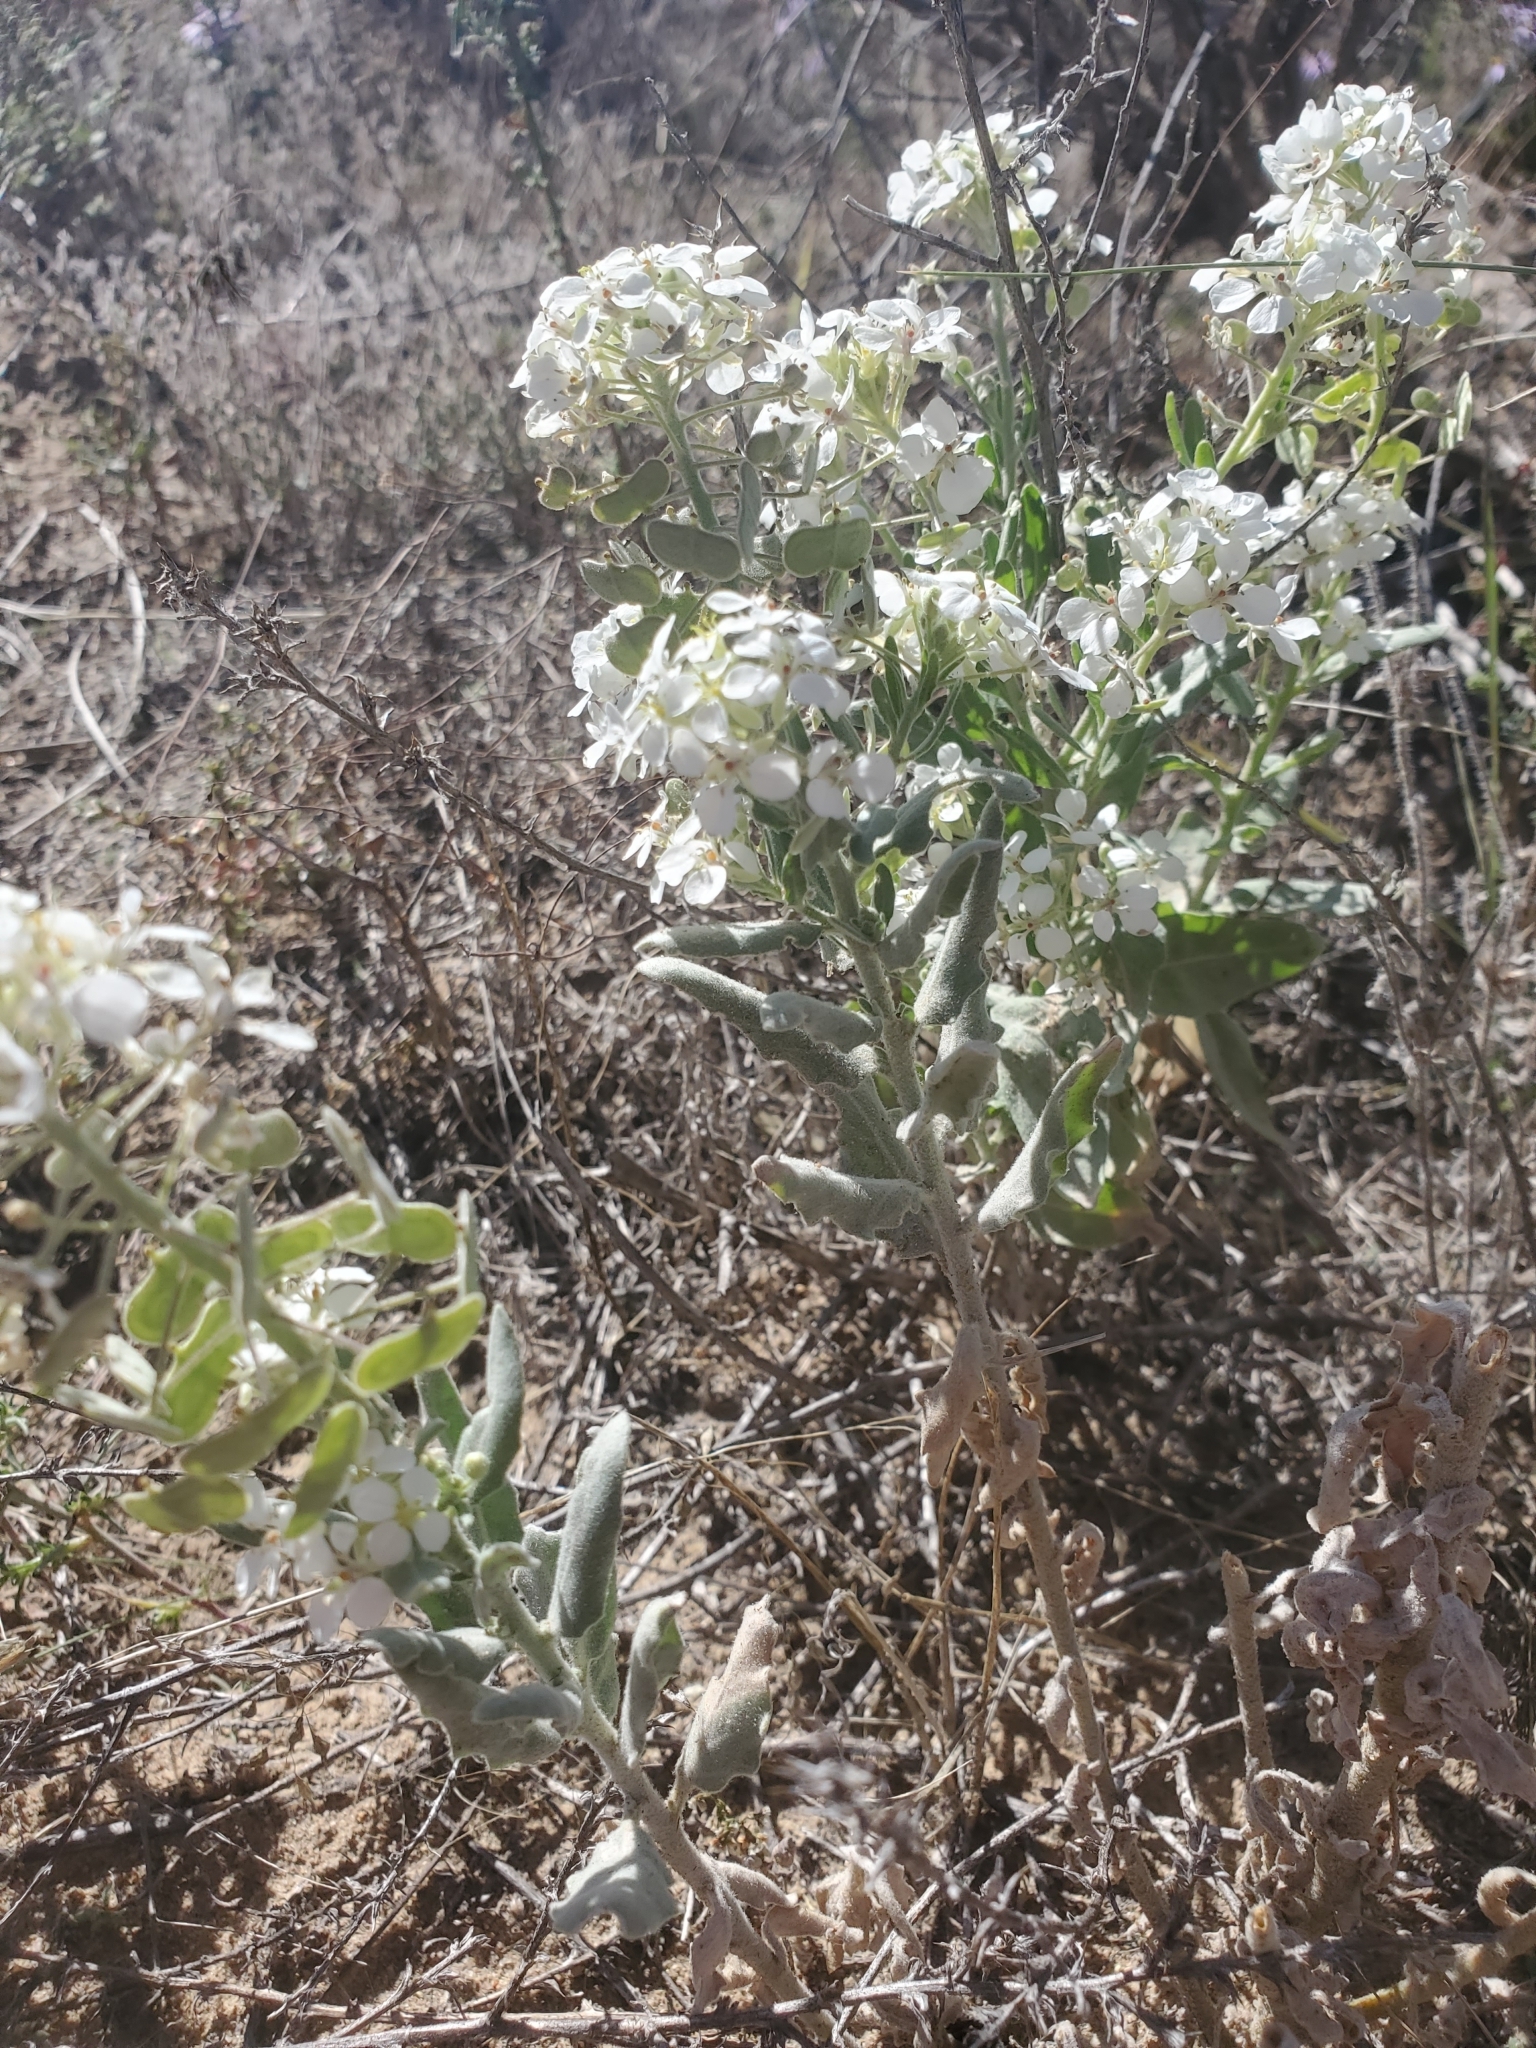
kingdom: Plantae
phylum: Tracheophyta
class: Magnoliopsida
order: Brassicales
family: Brassicaceae
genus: Dimorphocarpa
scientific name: Dimorphocarpa wislizenii
